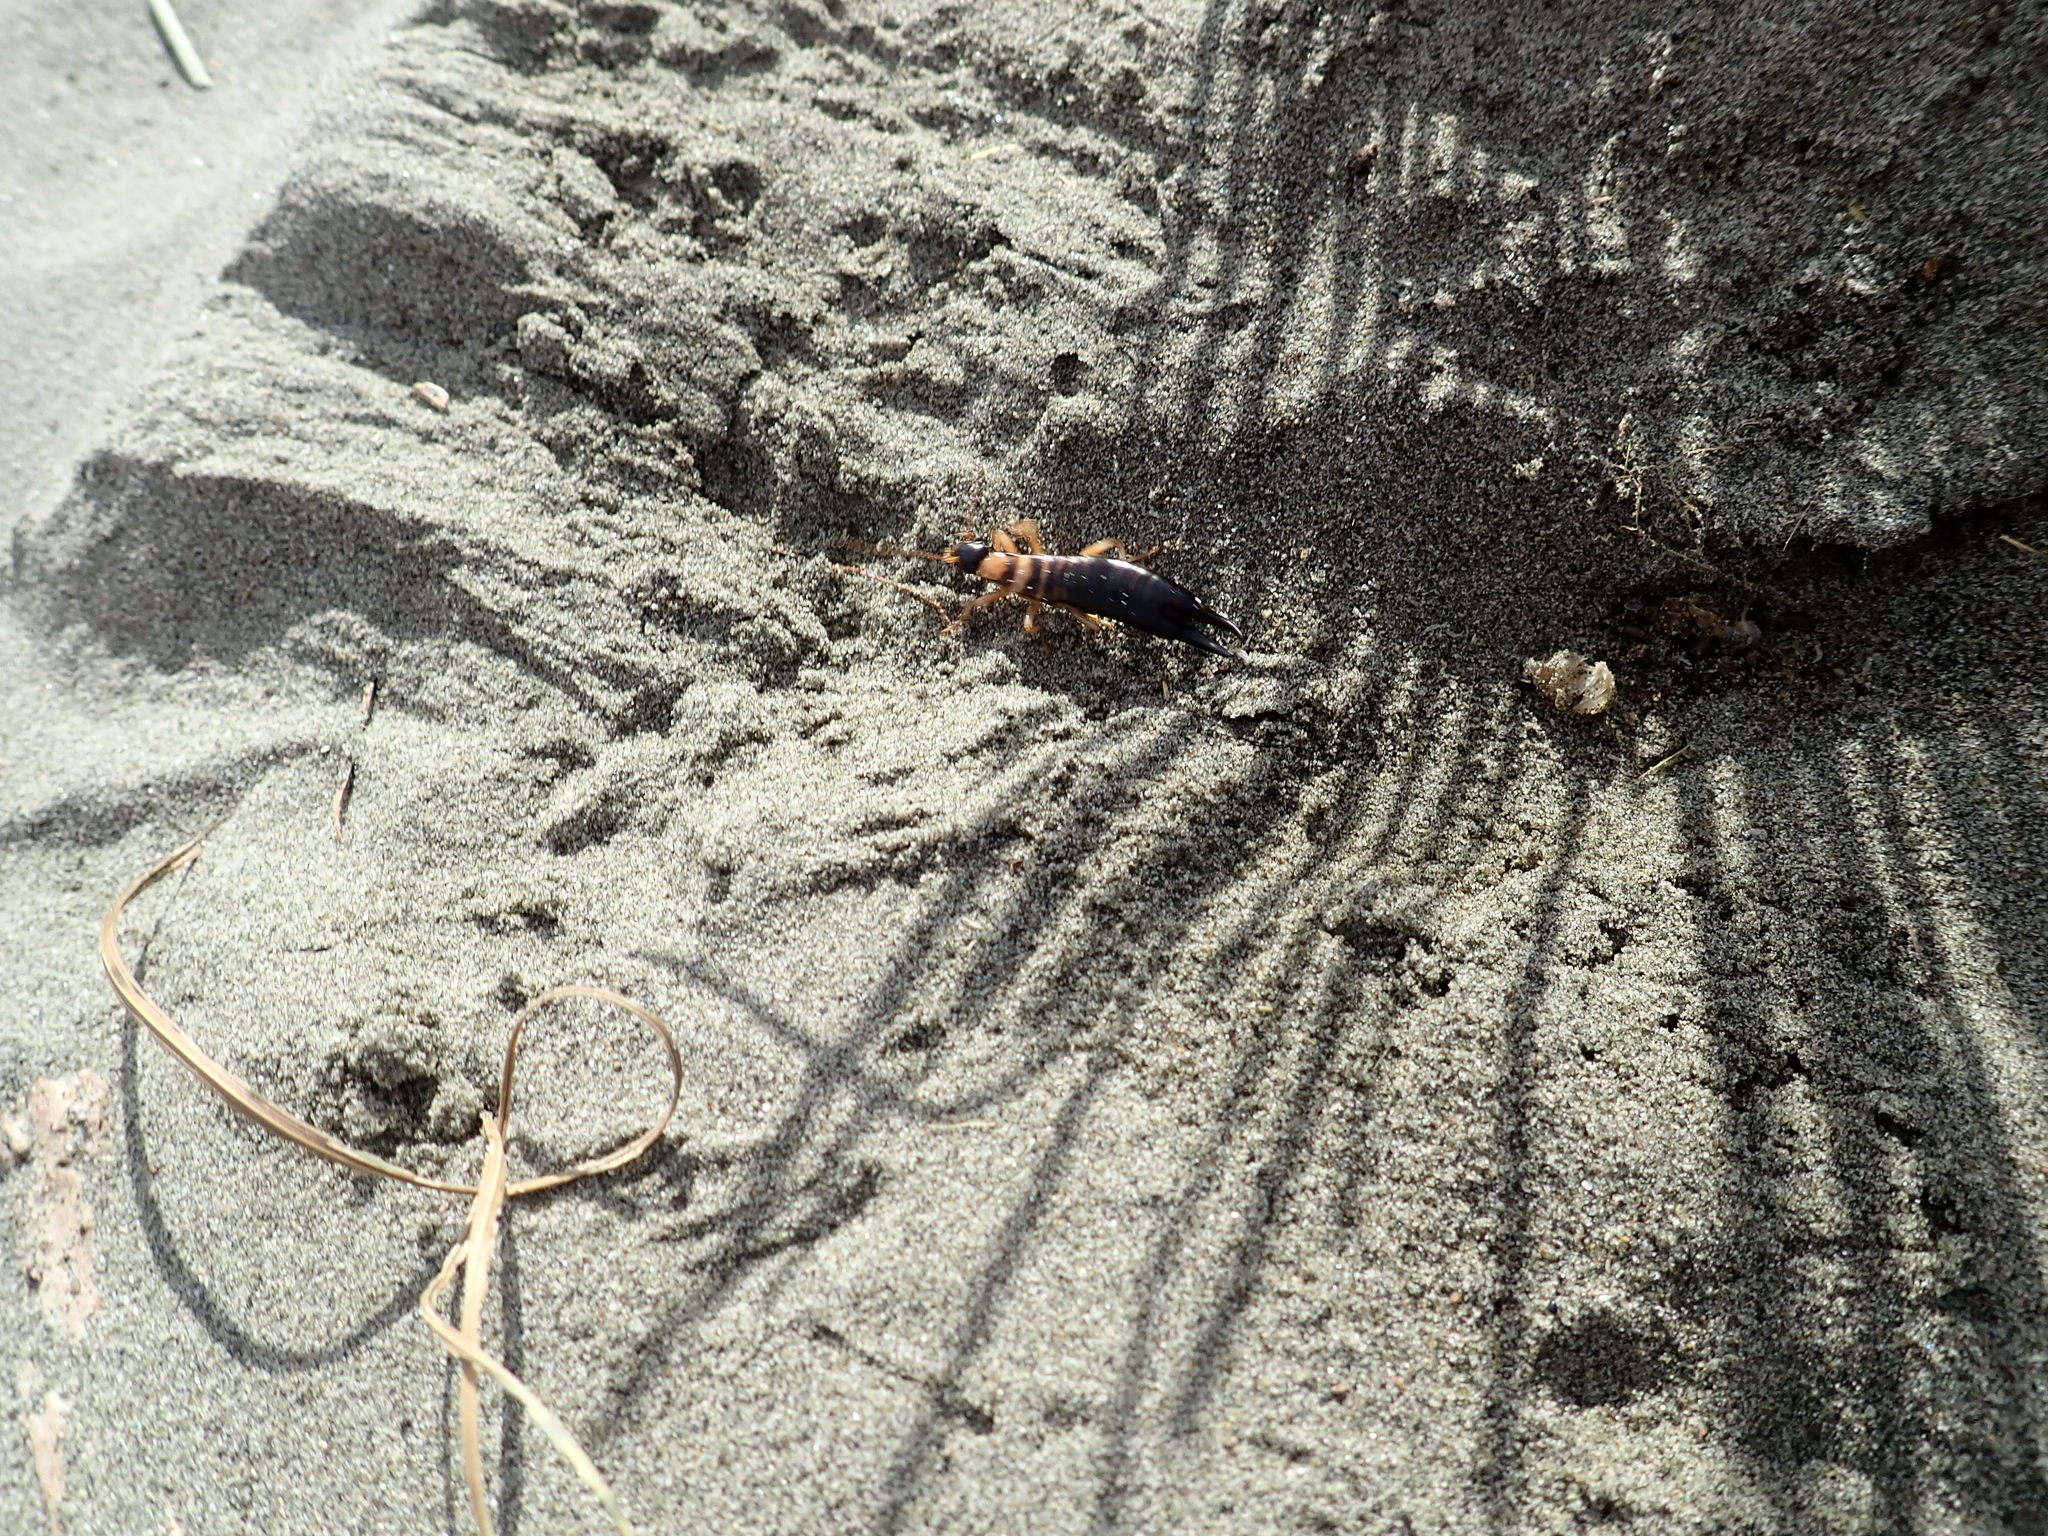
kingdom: Animalia
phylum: Arthropoda
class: Insecta
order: Dermaptera
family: Anisolabididae
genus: Anisolabis
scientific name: Anisolabis littorea
